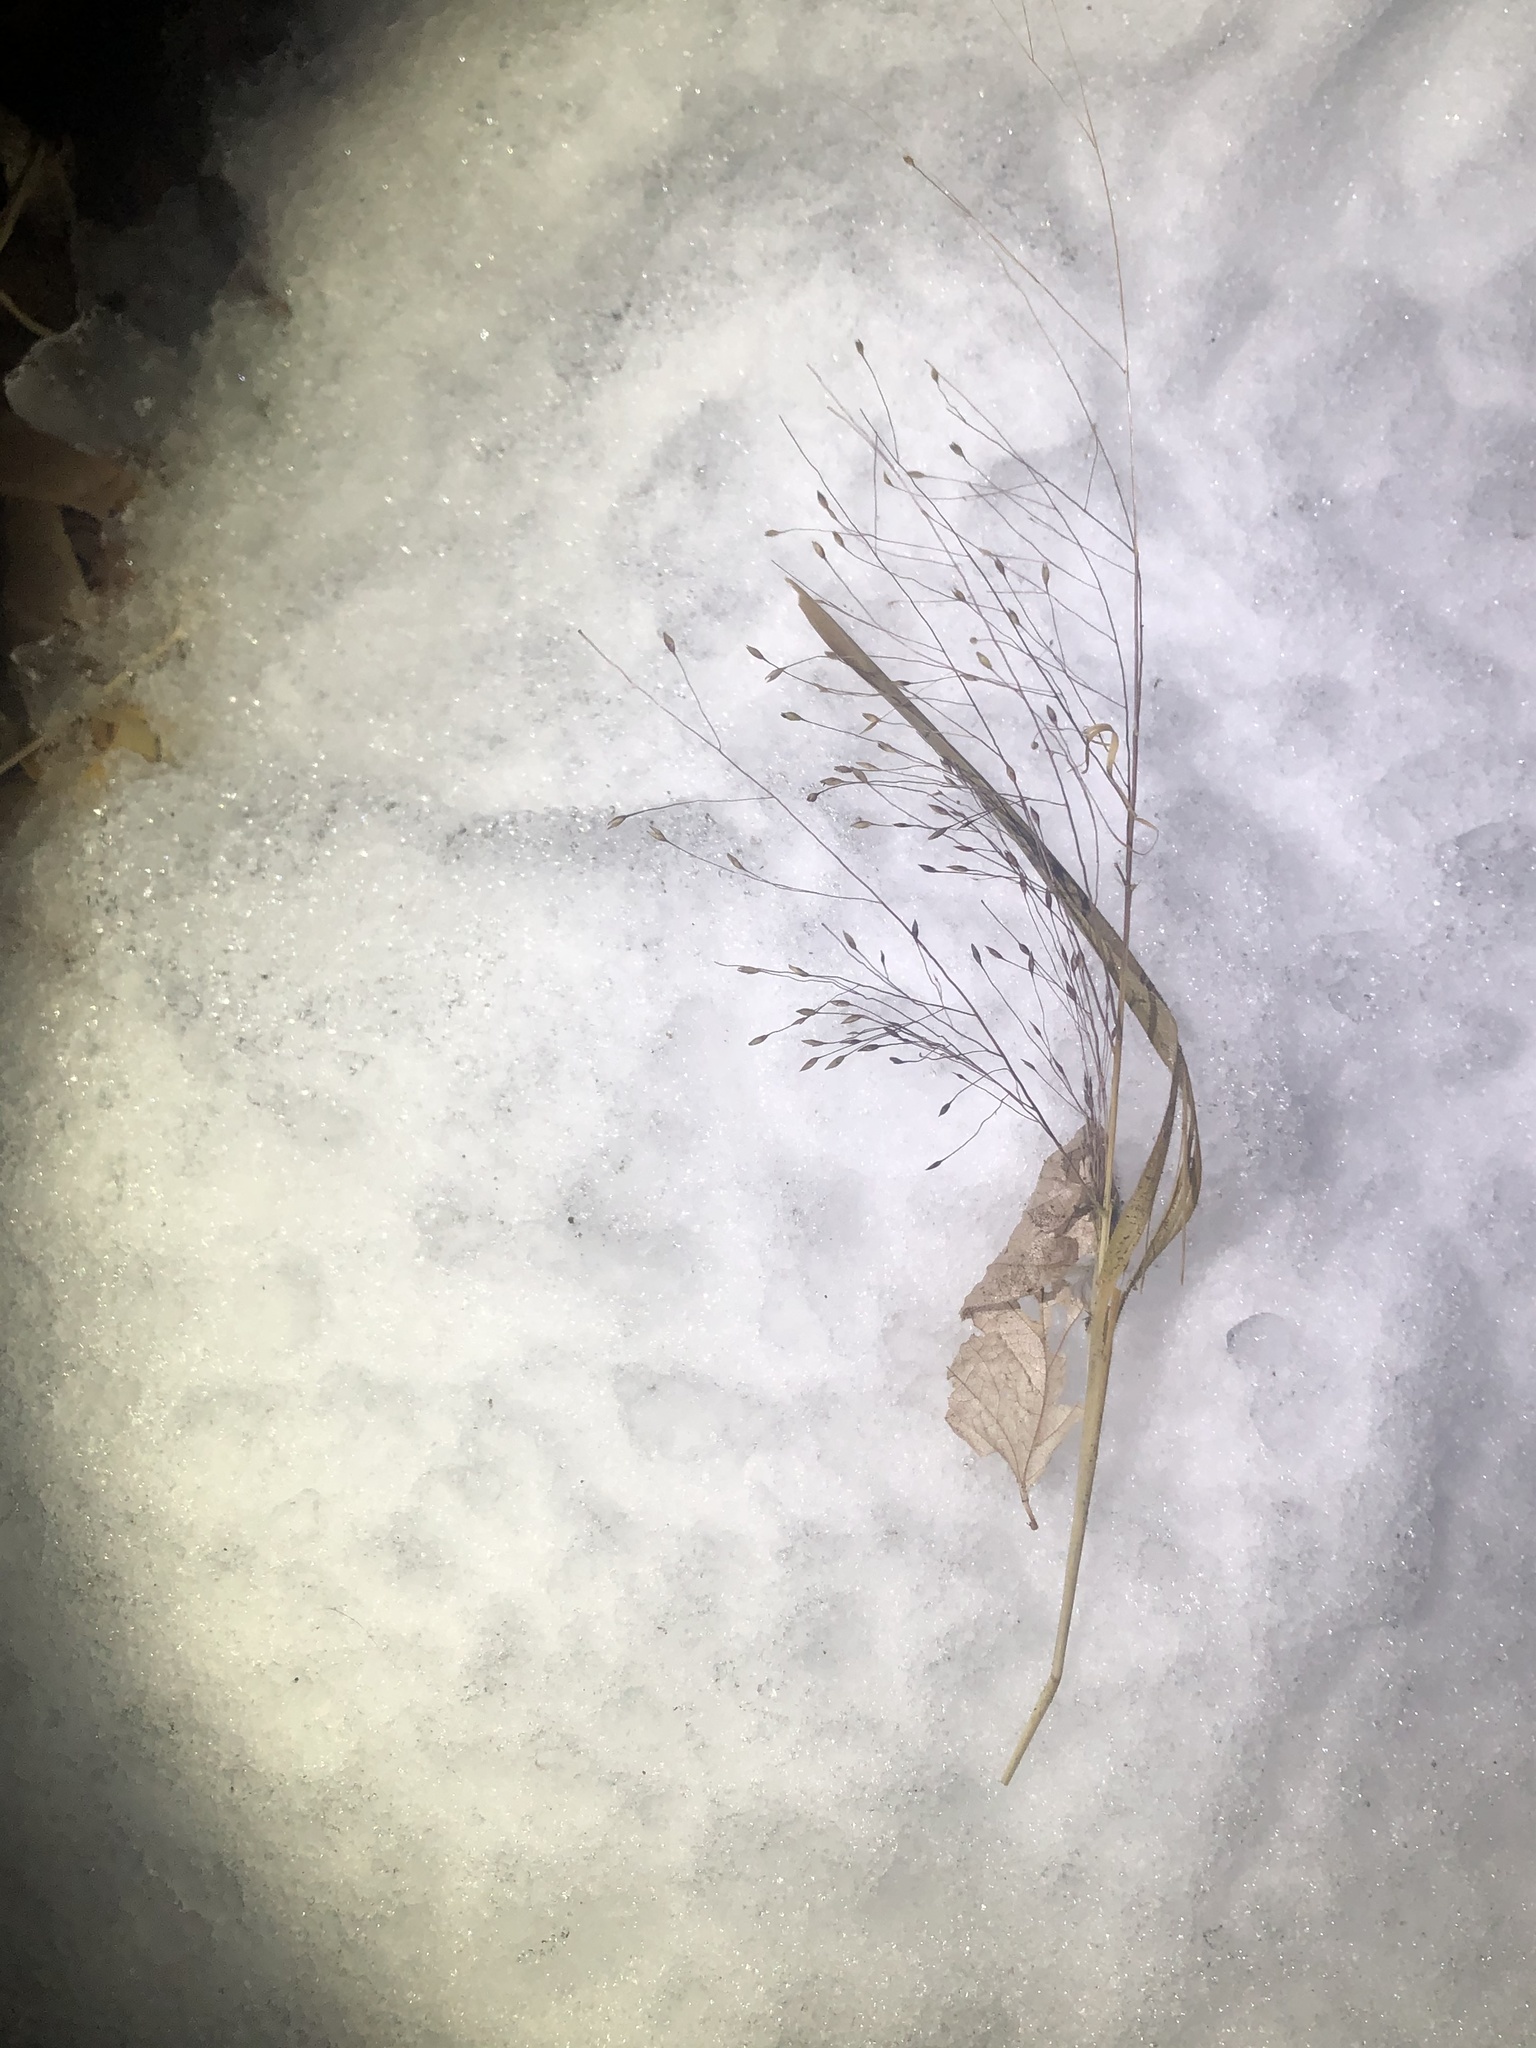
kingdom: Plantae
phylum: Tracheophyta
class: Liliopsida
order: Poales
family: Poaceae
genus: Panicum
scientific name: Panicum capillare
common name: Witch-grass
